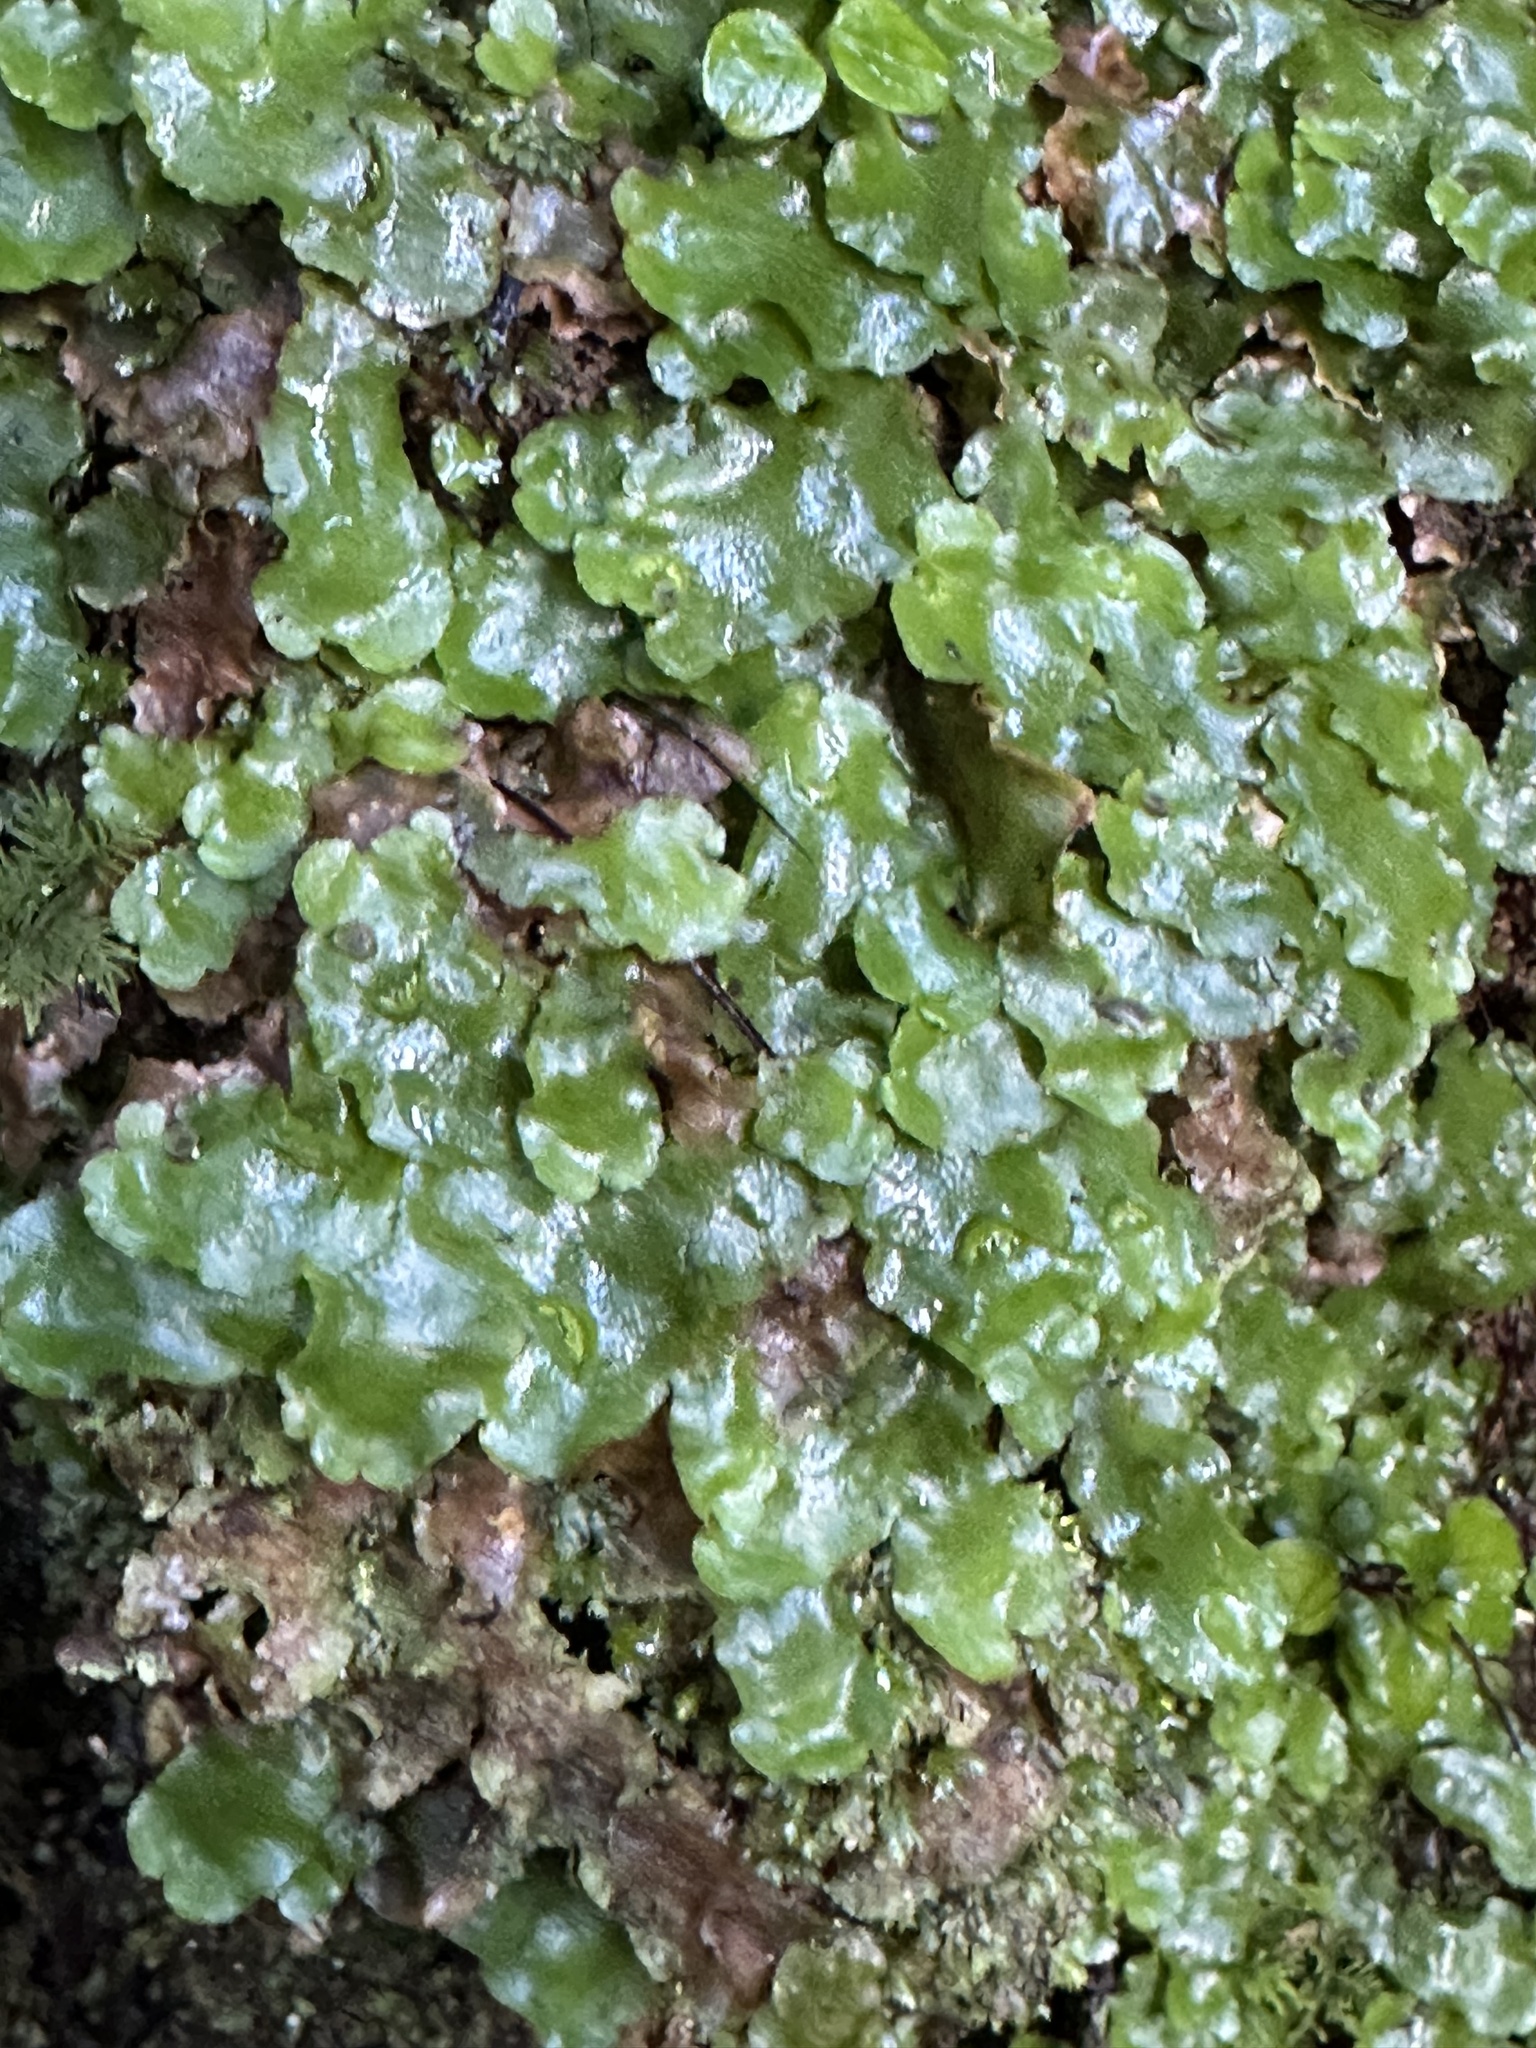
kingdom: Plantae
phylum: Marchantiophyta
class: Marchantiopsida
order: Marchantiales
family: Monocleaceae
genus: Monoclea
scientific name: Monoclea forsteri
